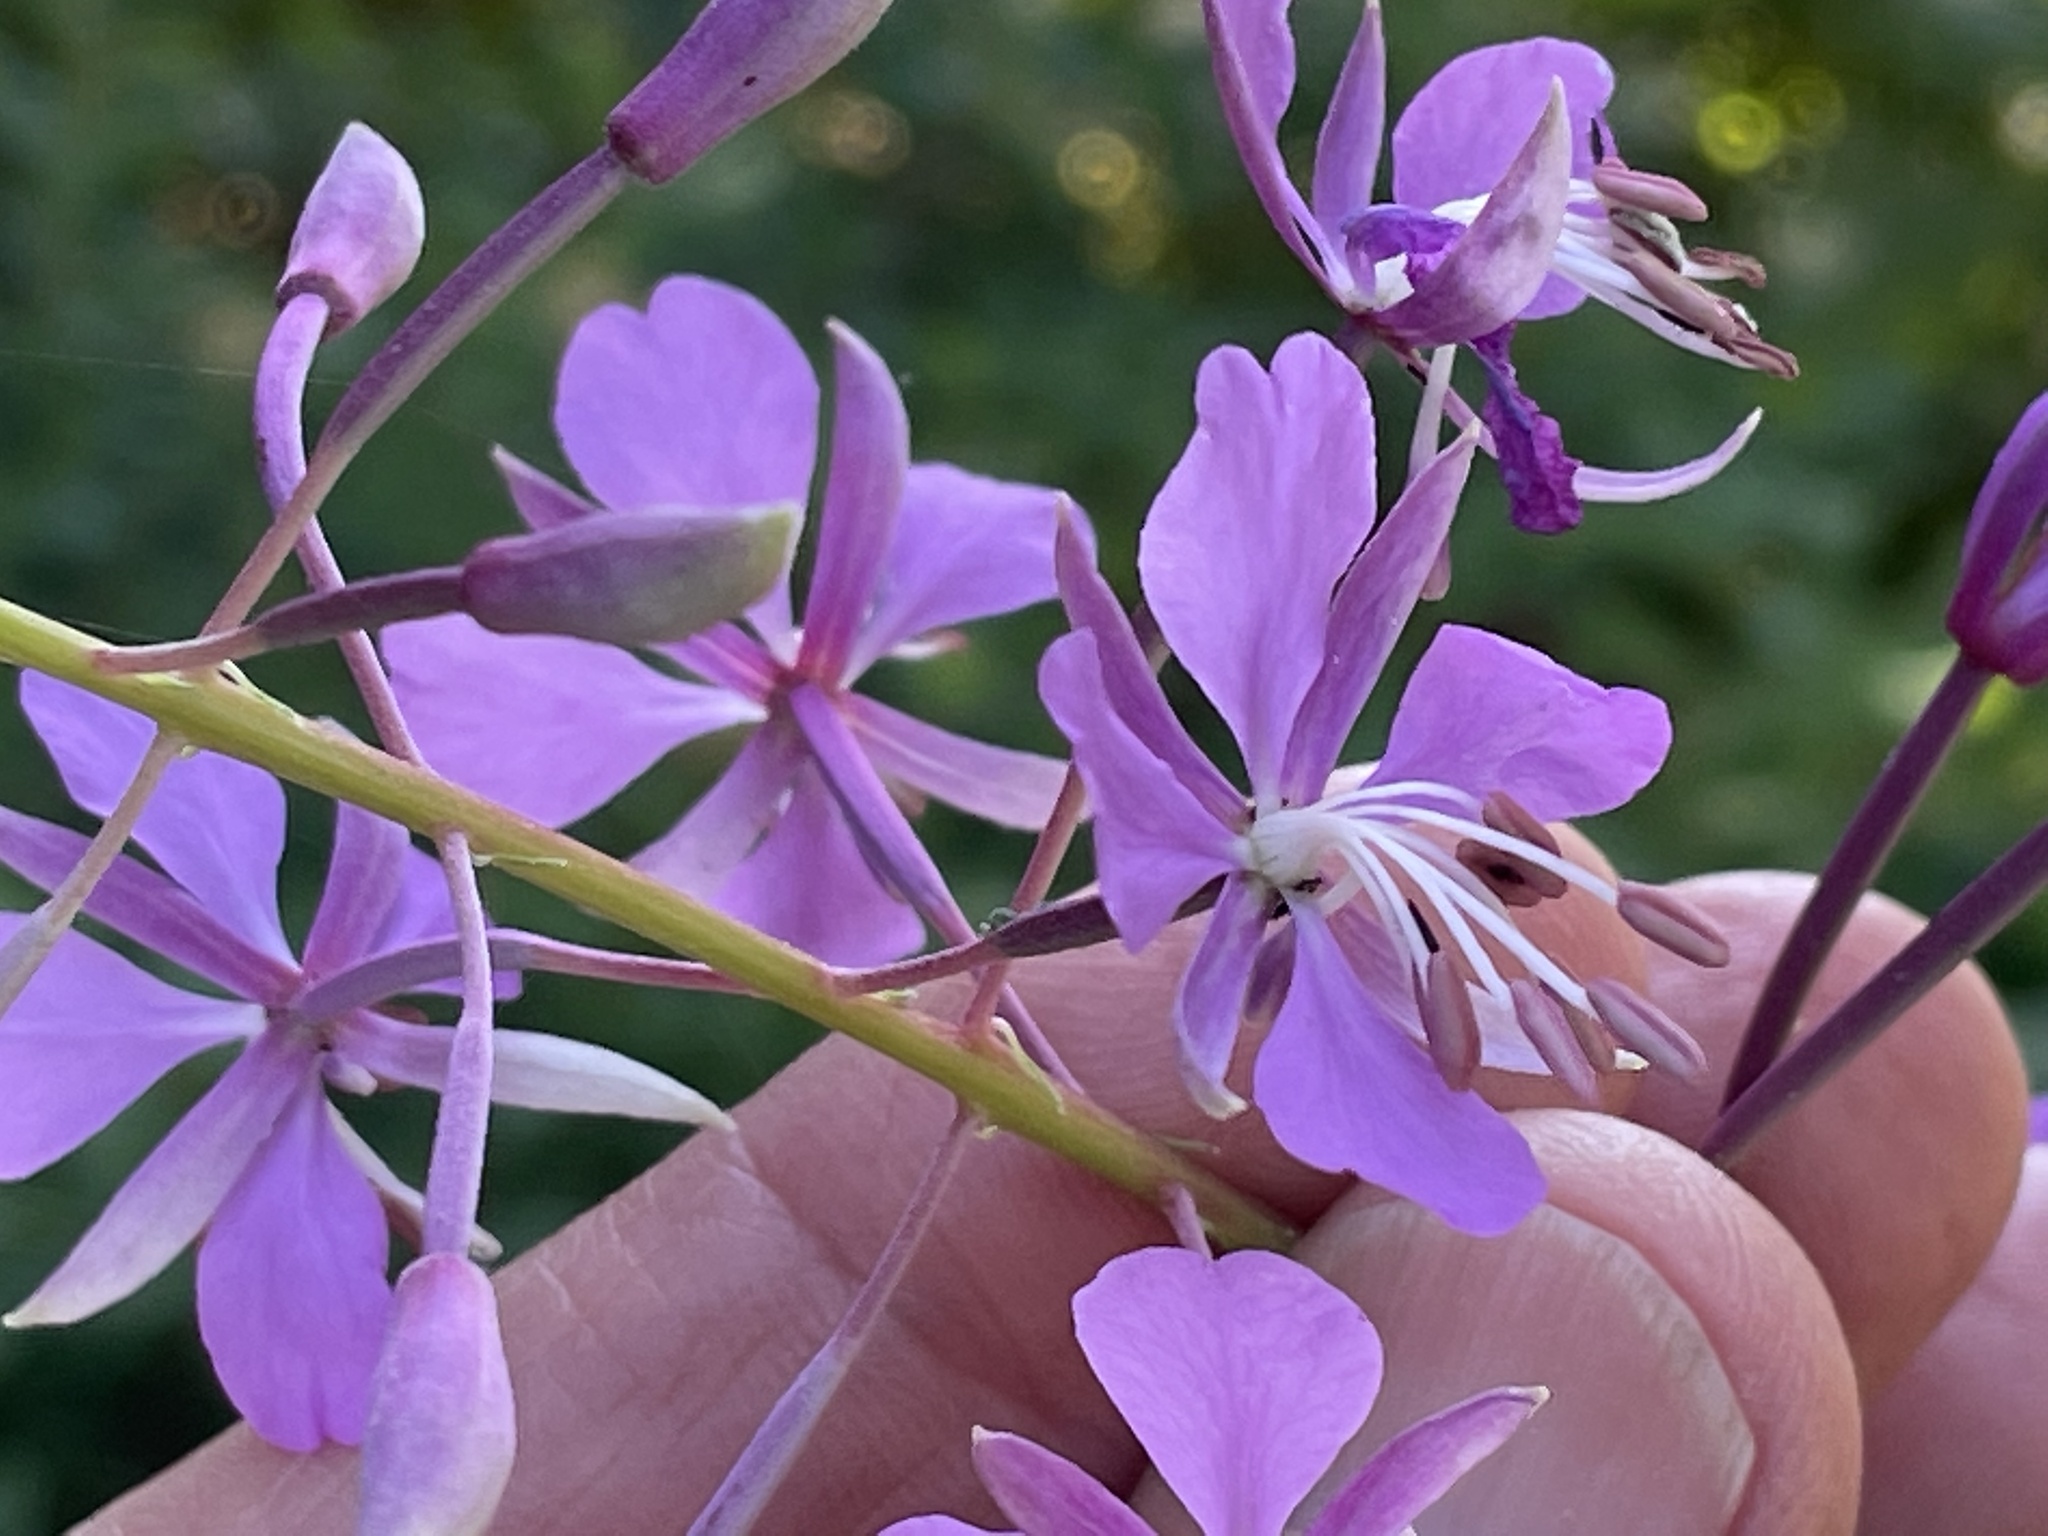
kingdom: Plantae
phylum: Tracheophyta
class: Magnoliopsida
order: Myrtales
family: Onagraceae
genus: Chamaenerion
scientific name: Chamaenerion angustifolium
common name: Fireweed
